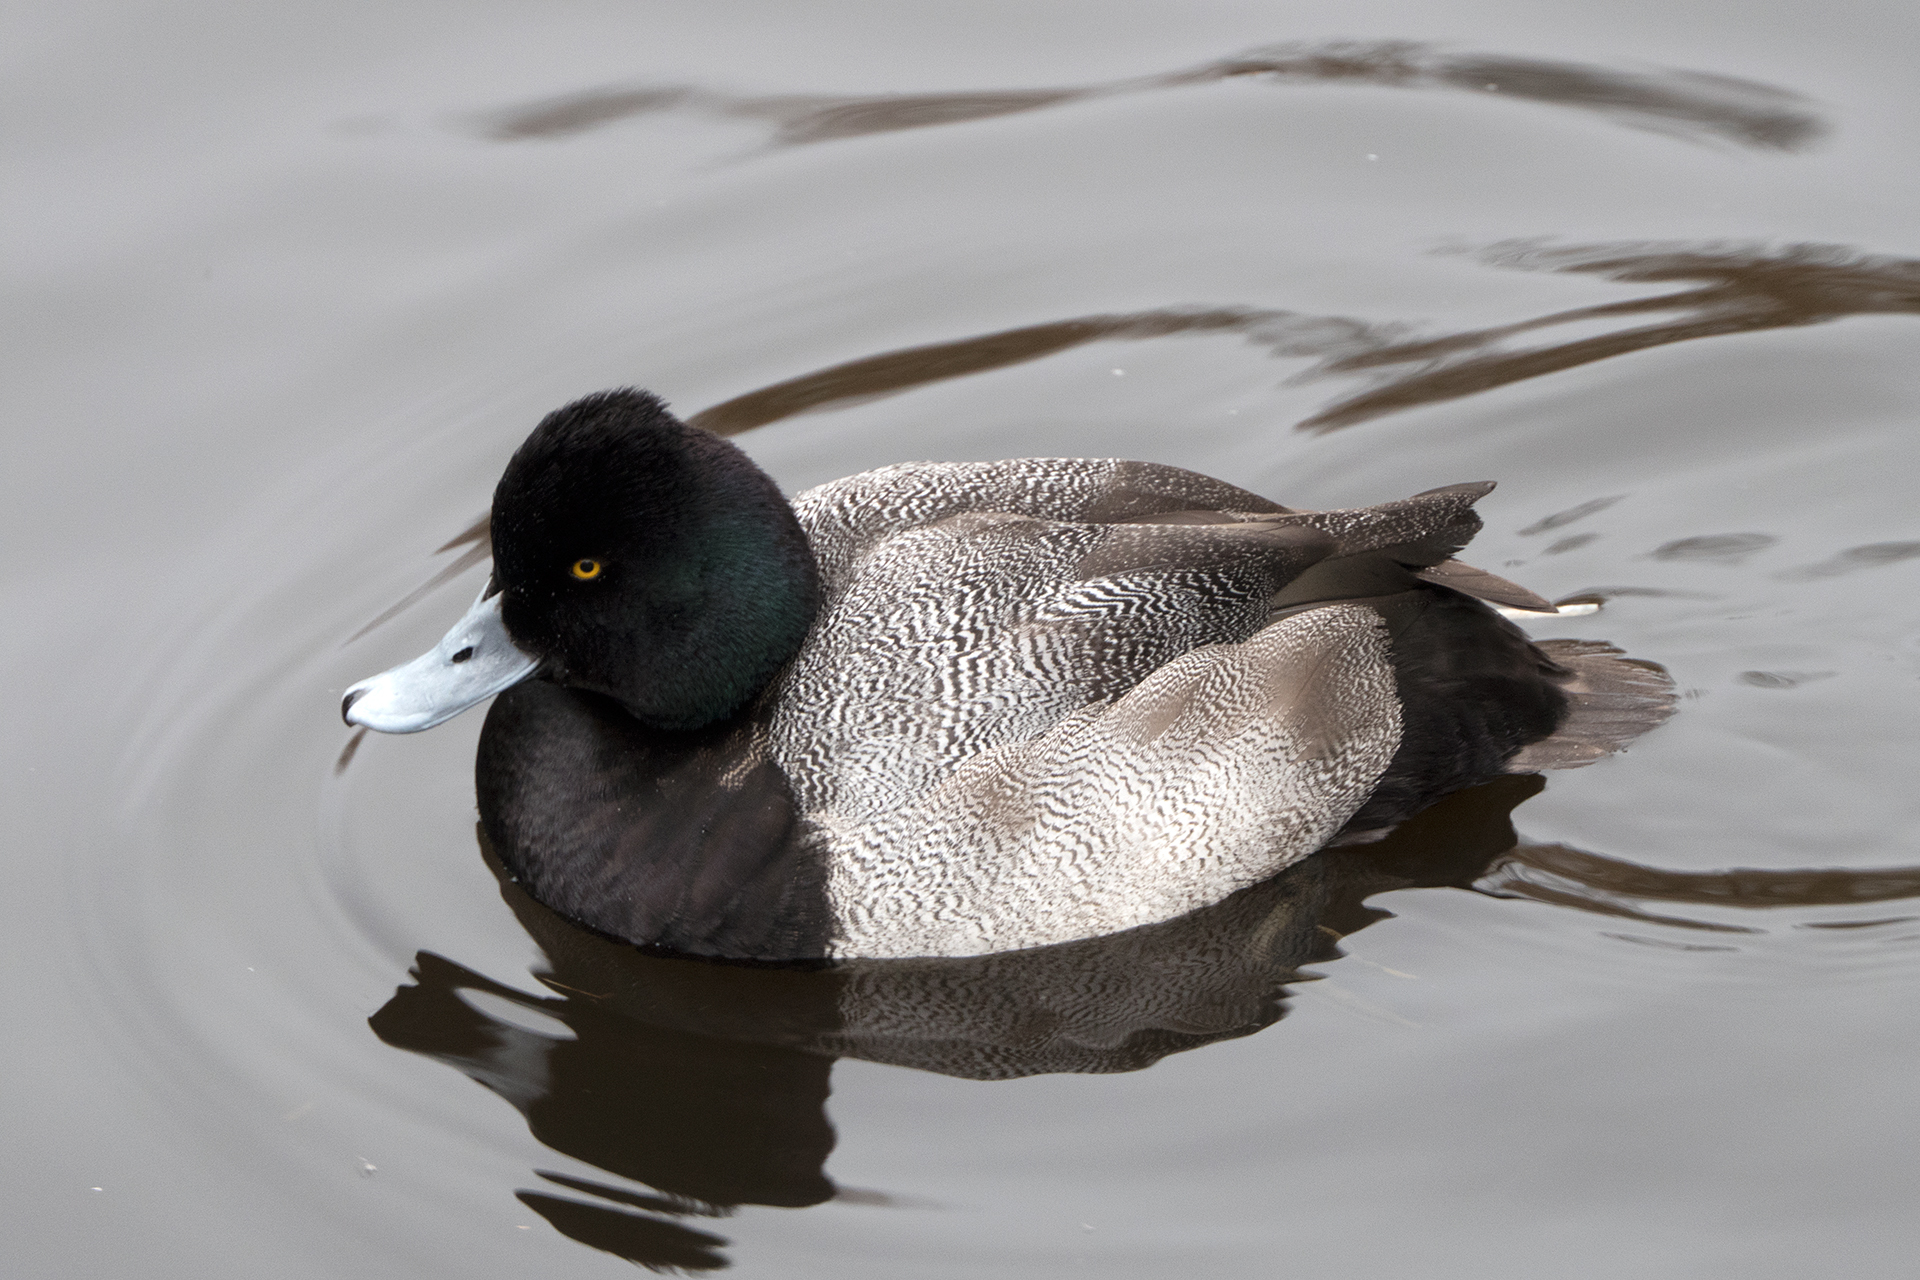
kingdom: Animalia
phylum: Chordata
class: Aves
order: Anseriformes
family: Anatidae
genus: Aythya
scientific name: Aythya affinis
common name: Lesser scaup
